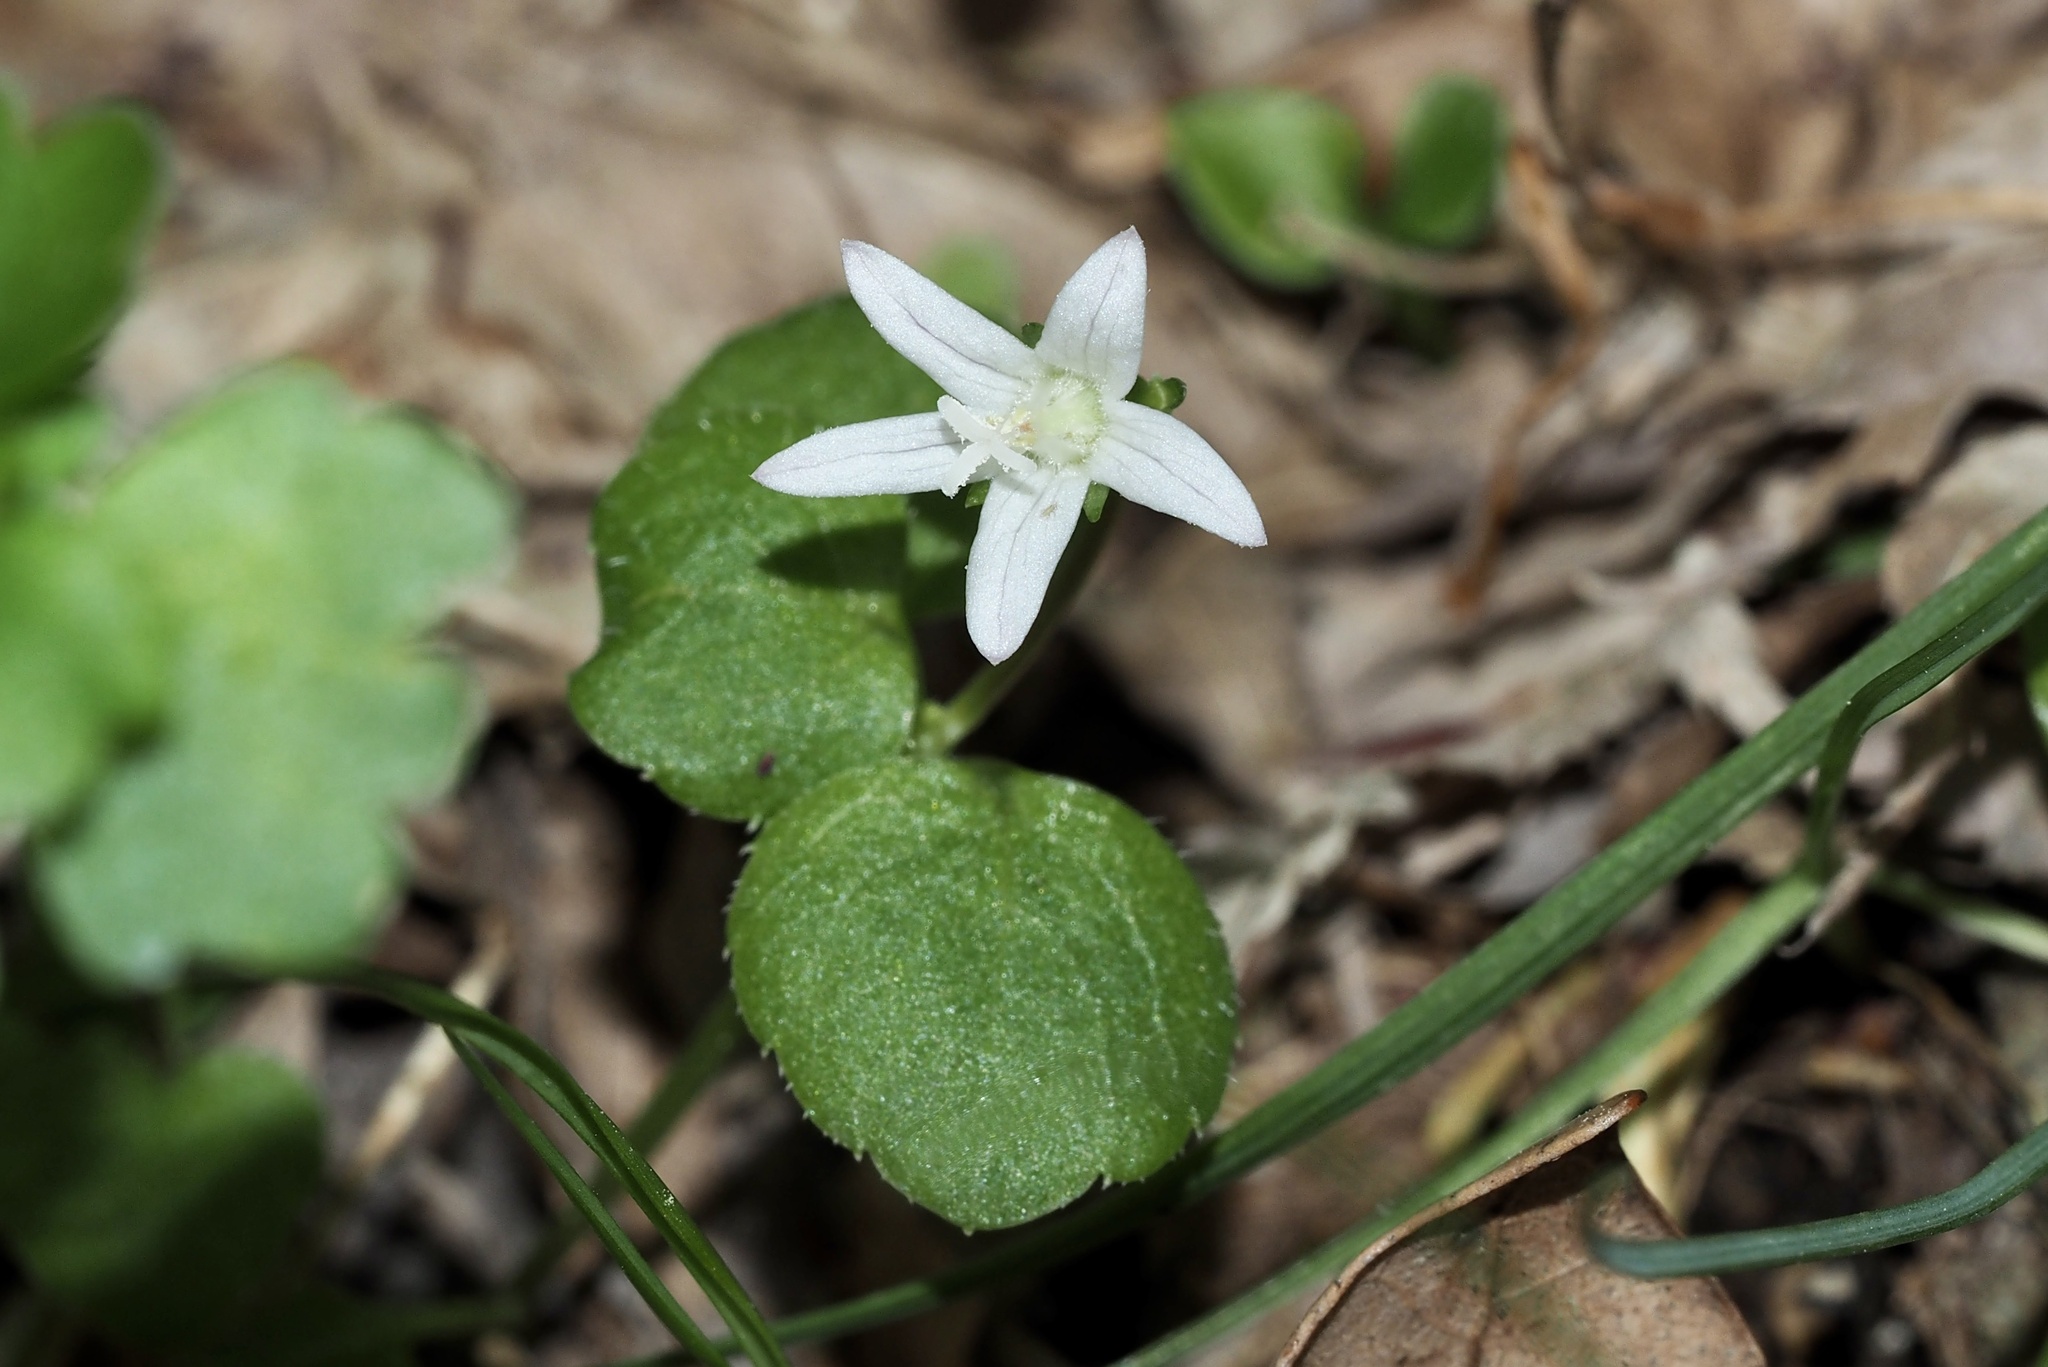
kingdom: Plantae
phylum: Tracheophyta
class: Magnoliopsida
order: Asterales
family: Campanulaceae
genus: Peracarpa
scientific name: Peracarpa carnosa
